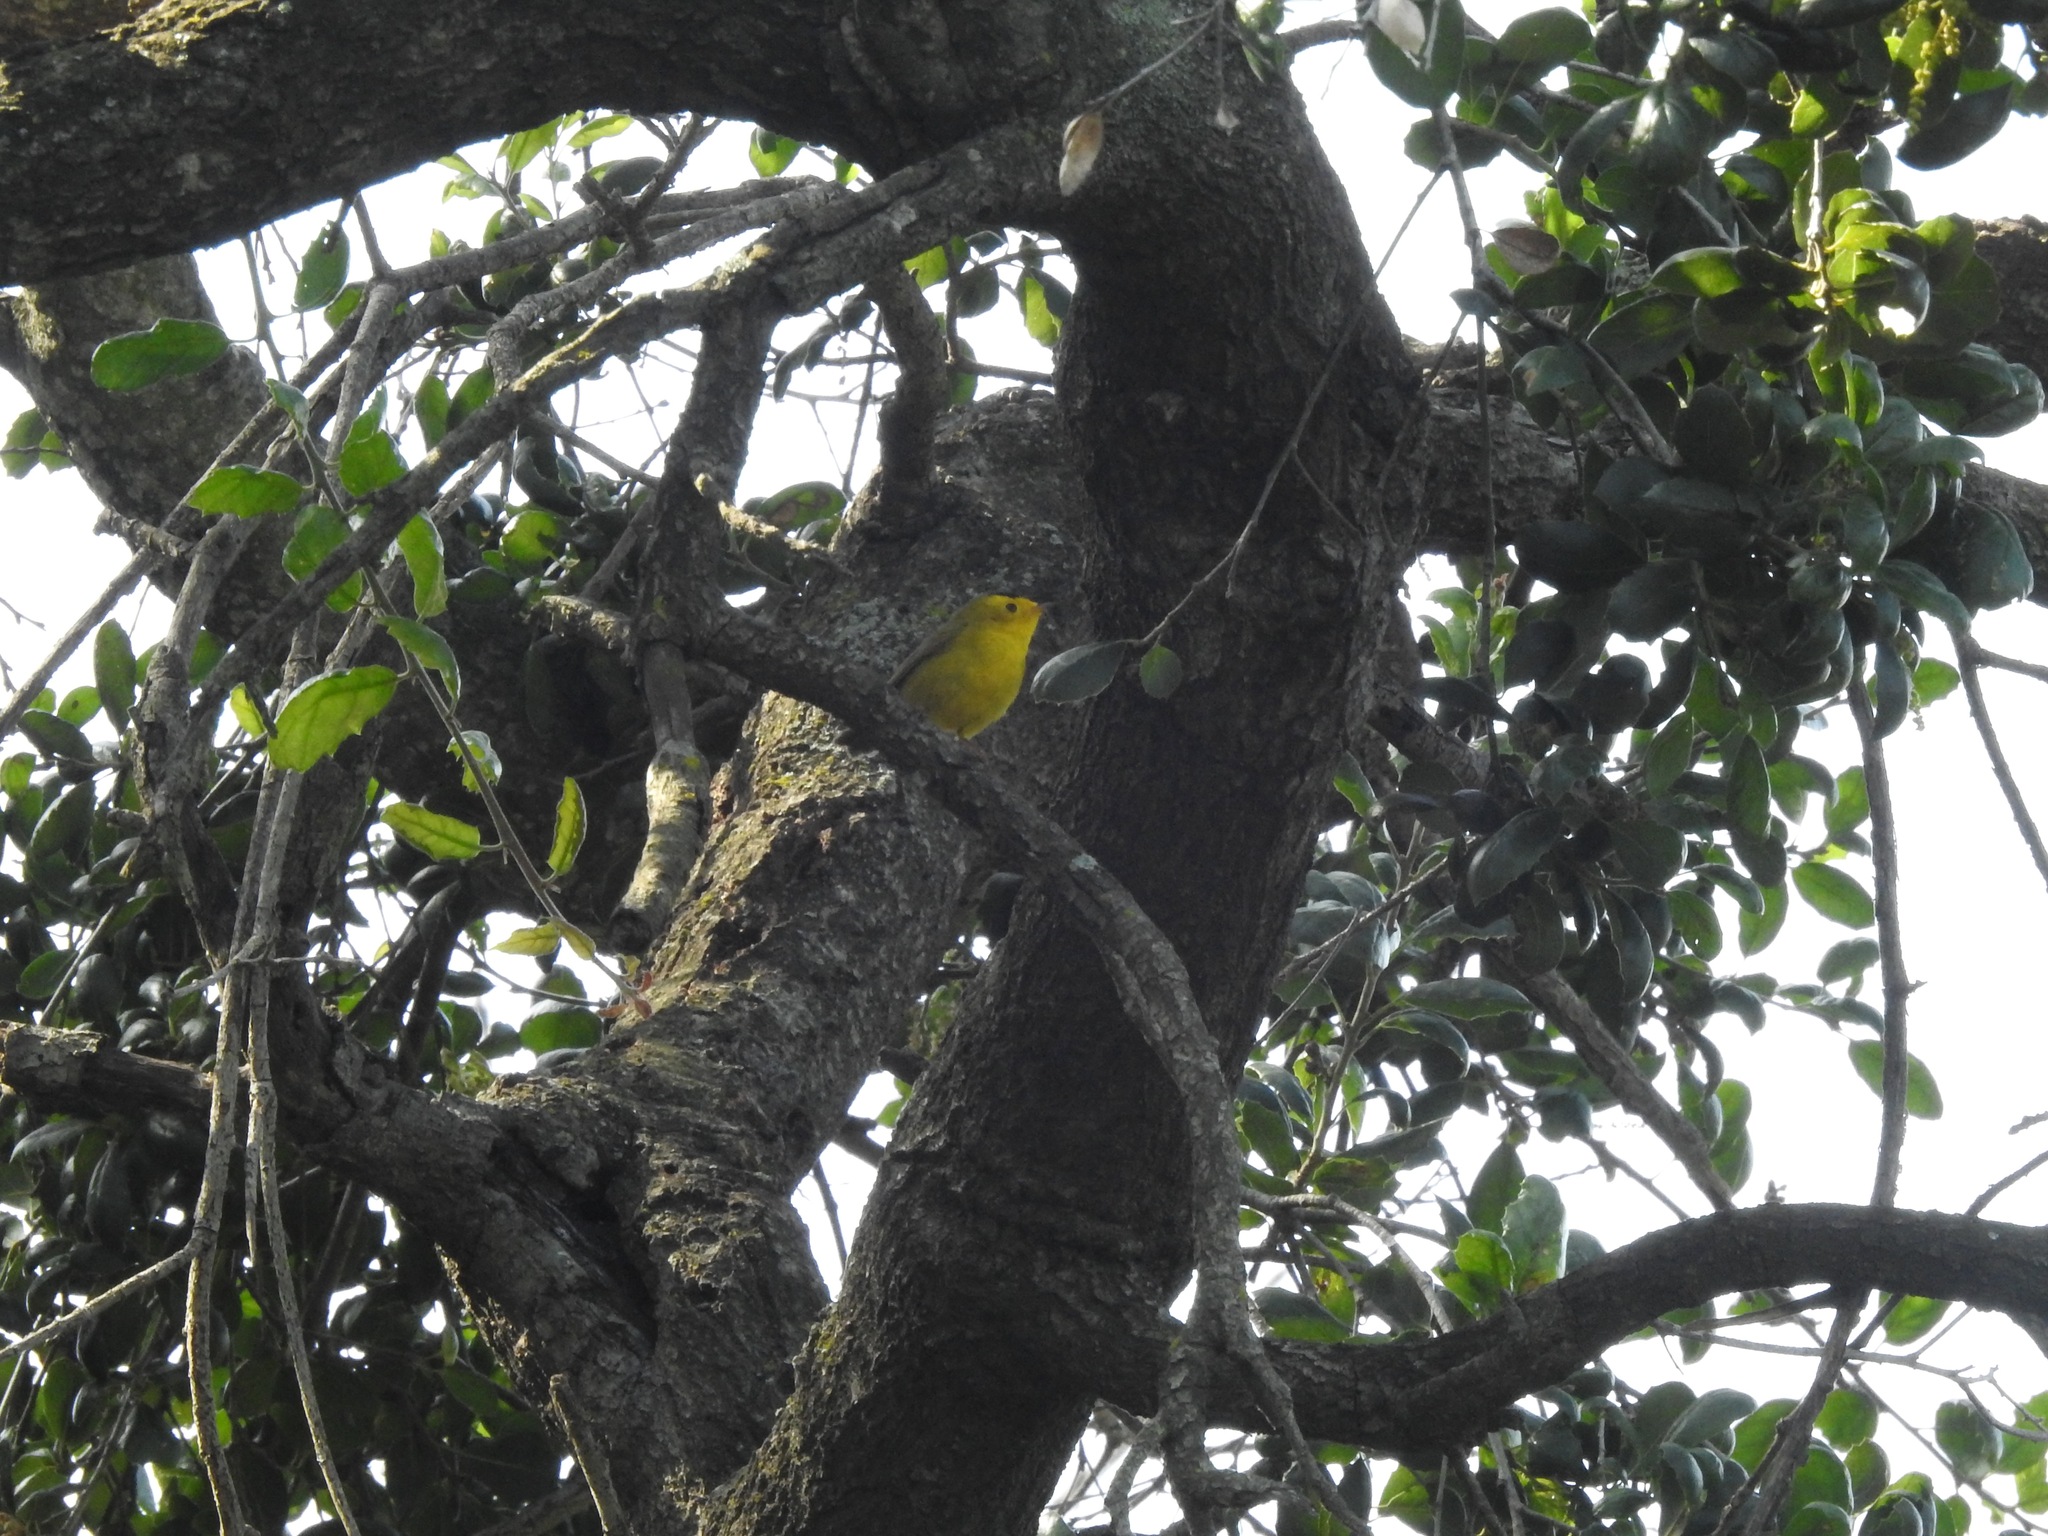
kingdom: Animalia
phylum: Chordata
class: Aves
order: Passeriformes
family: Parulidae
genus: Cardellina
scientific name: Cardellina pusilla
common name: Wilson's warbler
